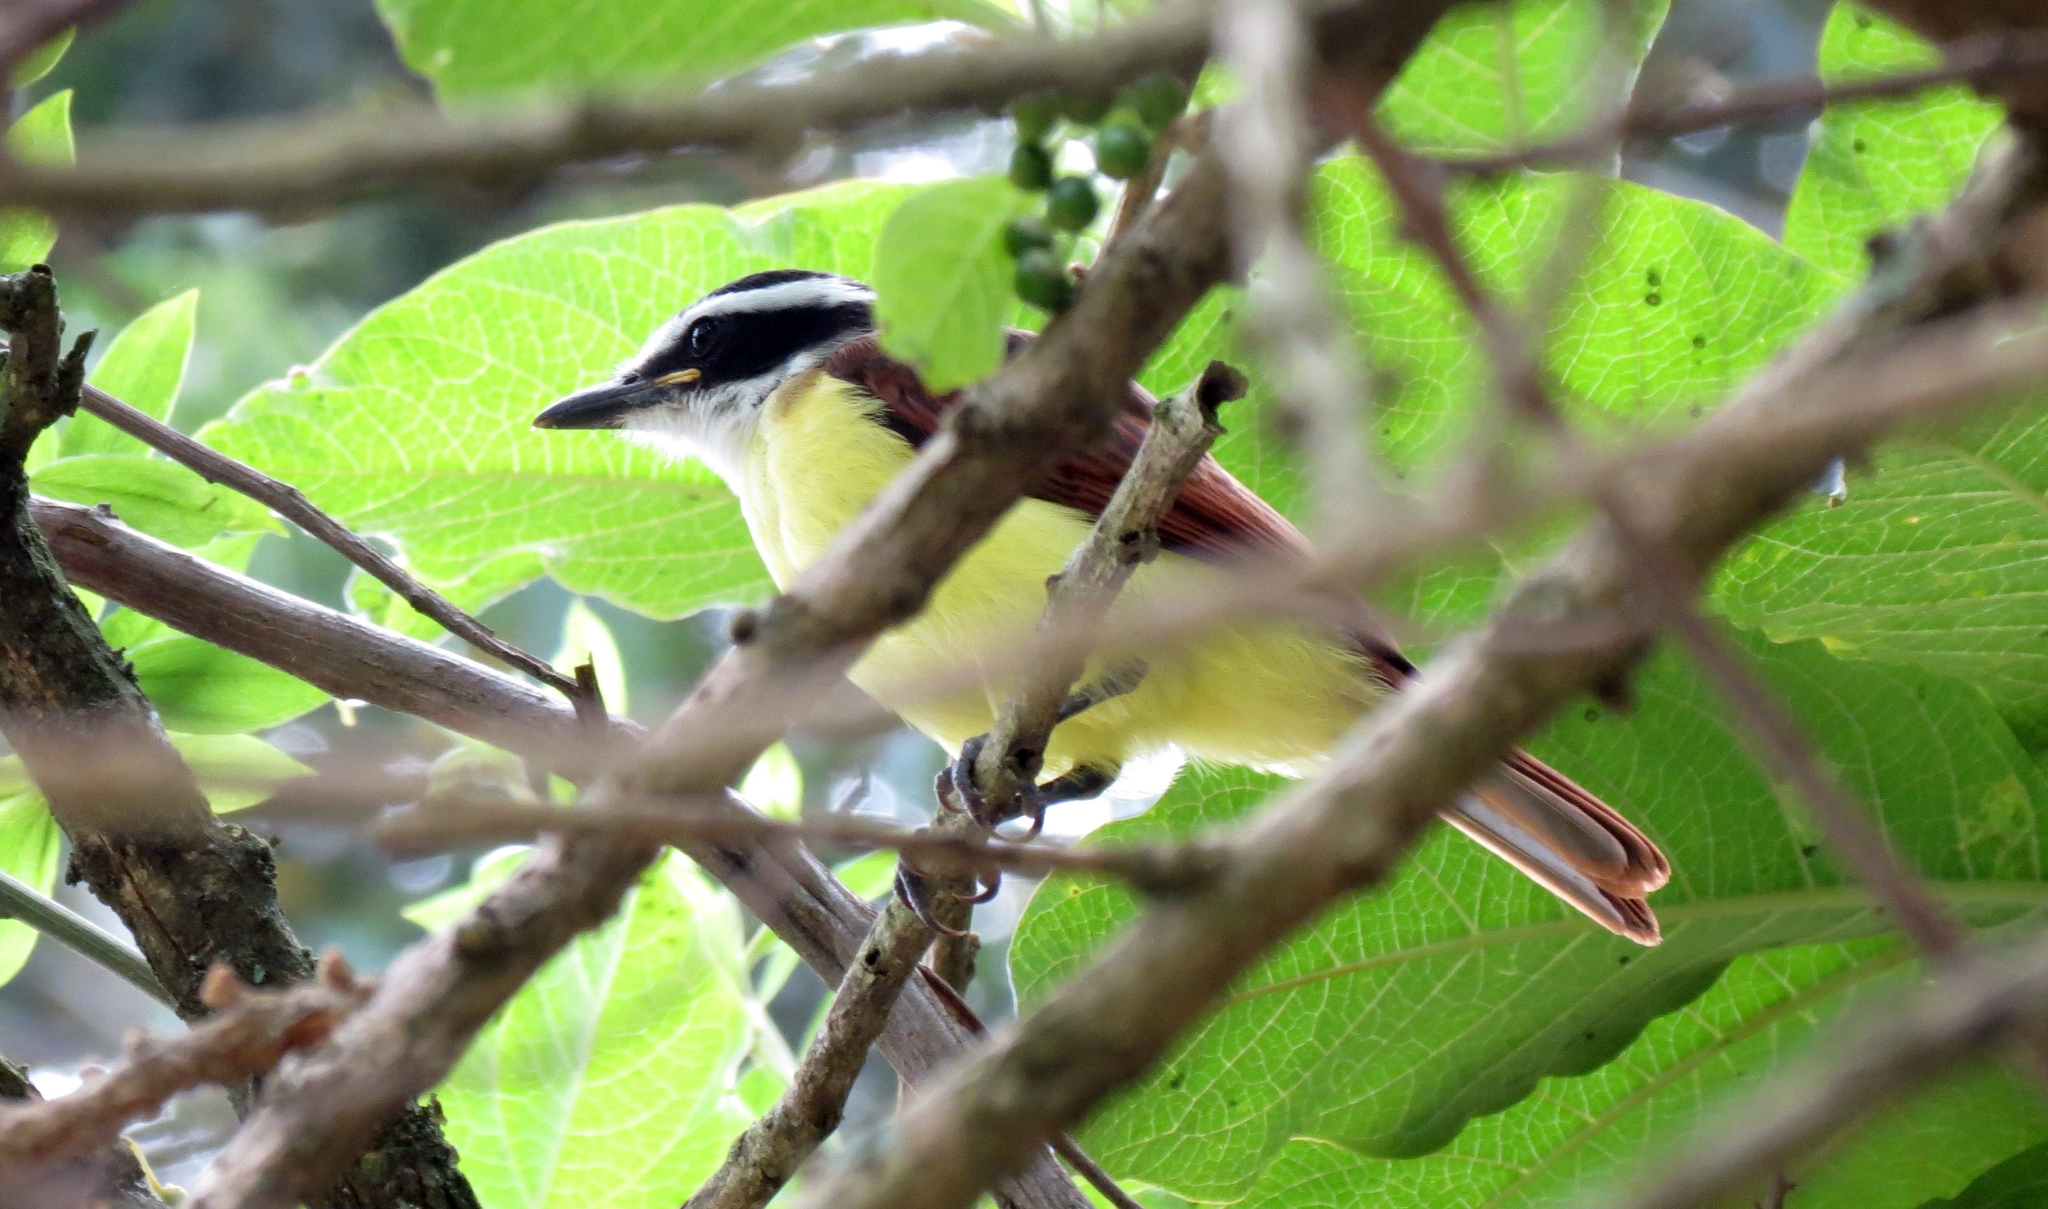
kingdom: Animalia
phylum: Chordata
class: Aves
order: Passeriformes
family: Tyrannidae
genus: Pitangus
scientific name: Pitangus sulphuratus
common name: Great kiskadee
